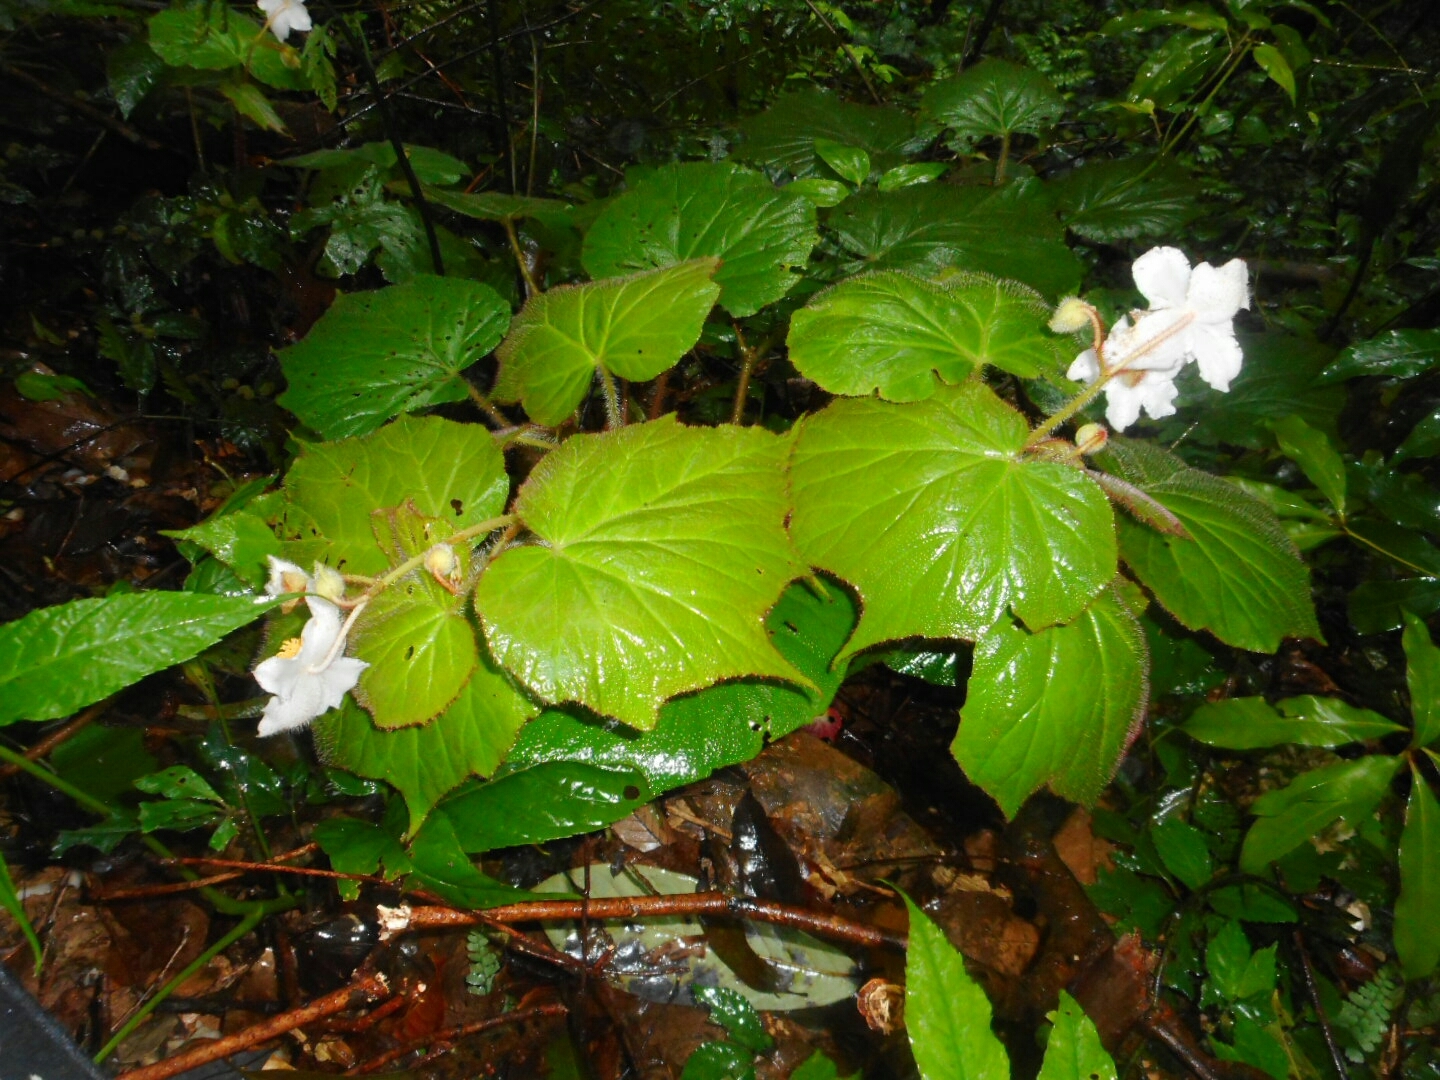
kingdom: Plantae
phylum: Tracheophyta
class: Magnoliopsida
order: Cucurbitales
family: Begoniaceae
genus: Begonia
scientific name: Begonia villifolia
